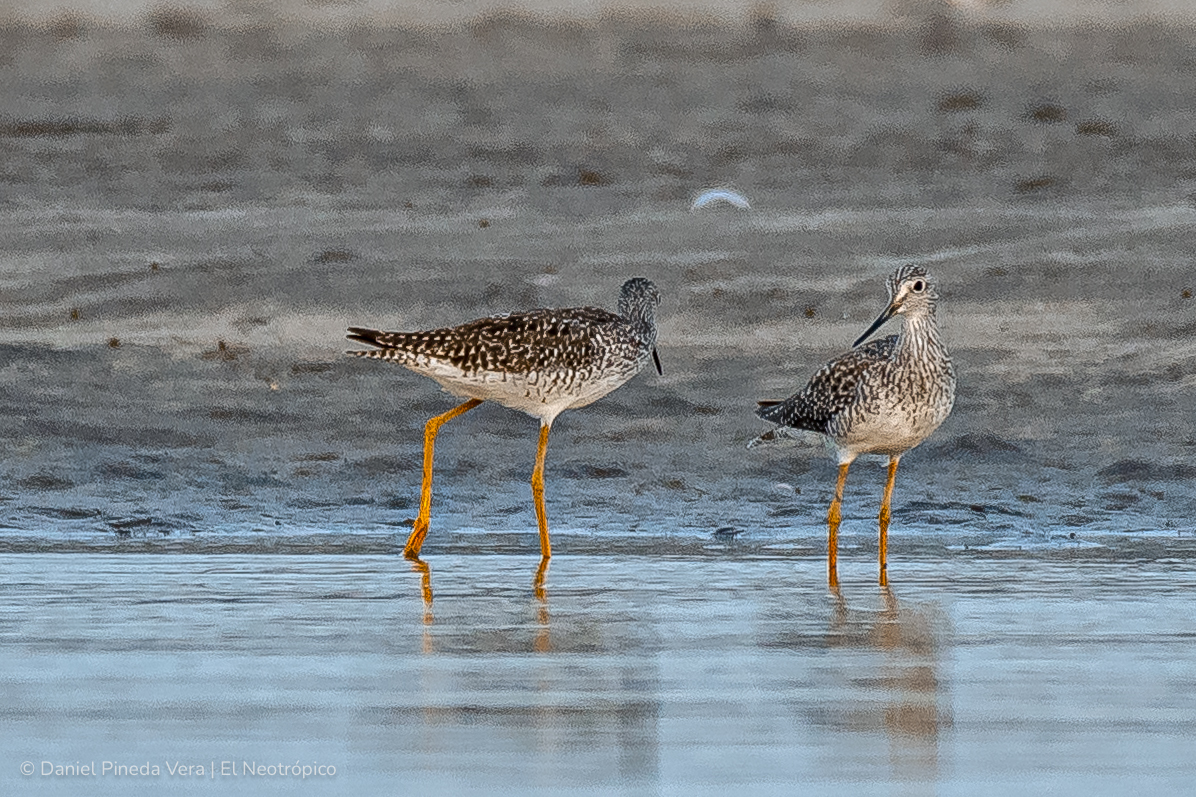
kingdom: Animalia
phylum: Chordata
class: Aves
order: Charadriiformes
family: Scolopacidae
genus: Tringa
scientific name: Tringa melanoleuca
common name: Greater yellowlegs
